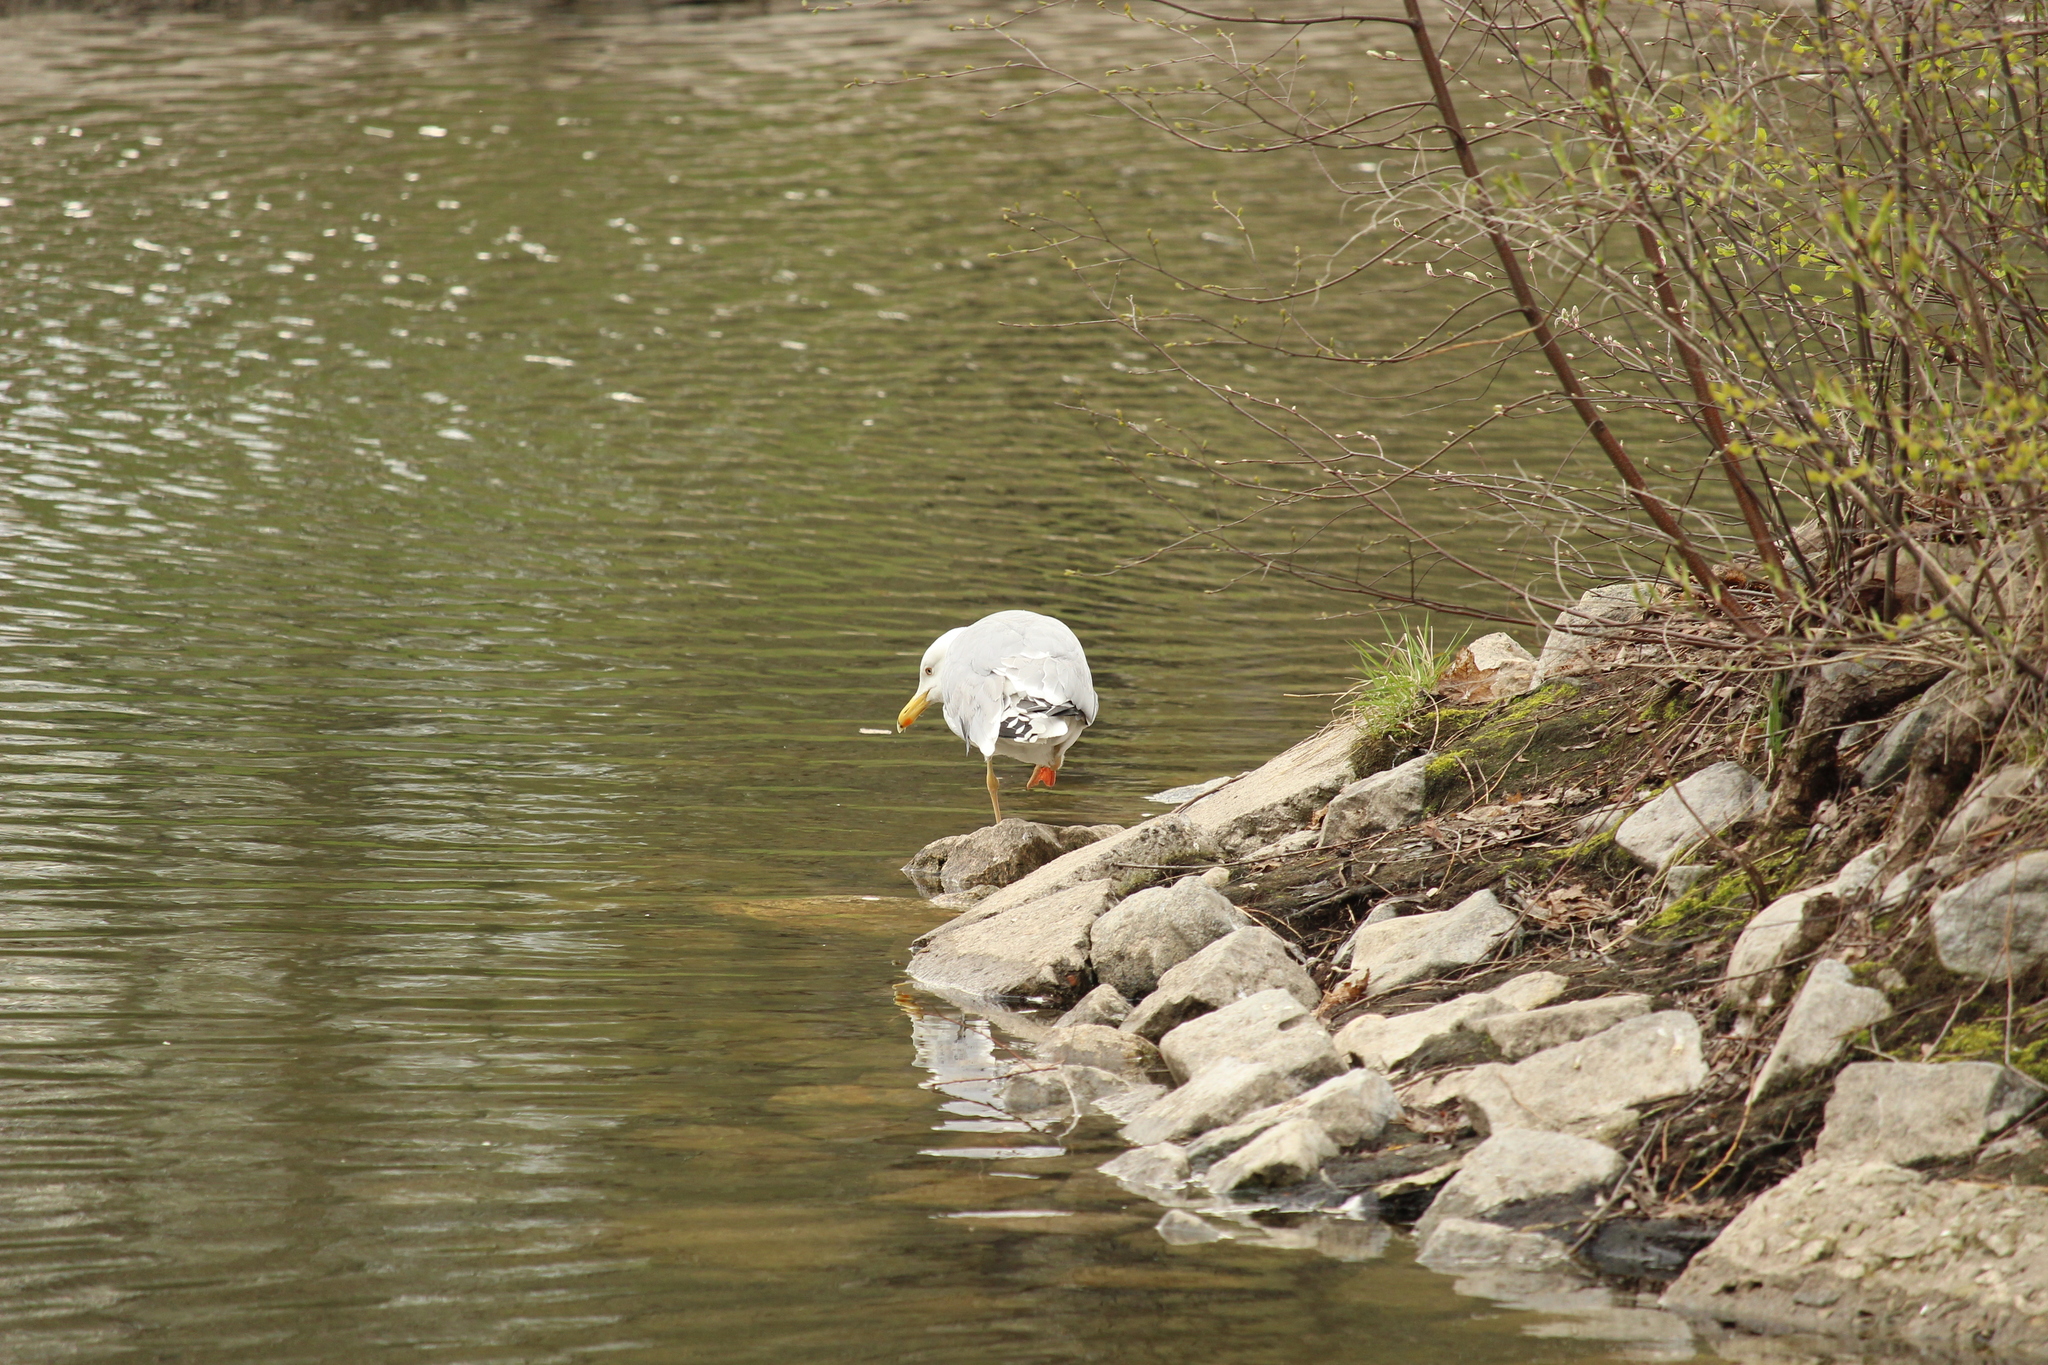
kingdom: Animalia
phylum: Chordata
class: Aves
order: Charadriiformes
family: Laridae
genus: Larus
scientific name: Larus argentatus
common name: Herring gull
